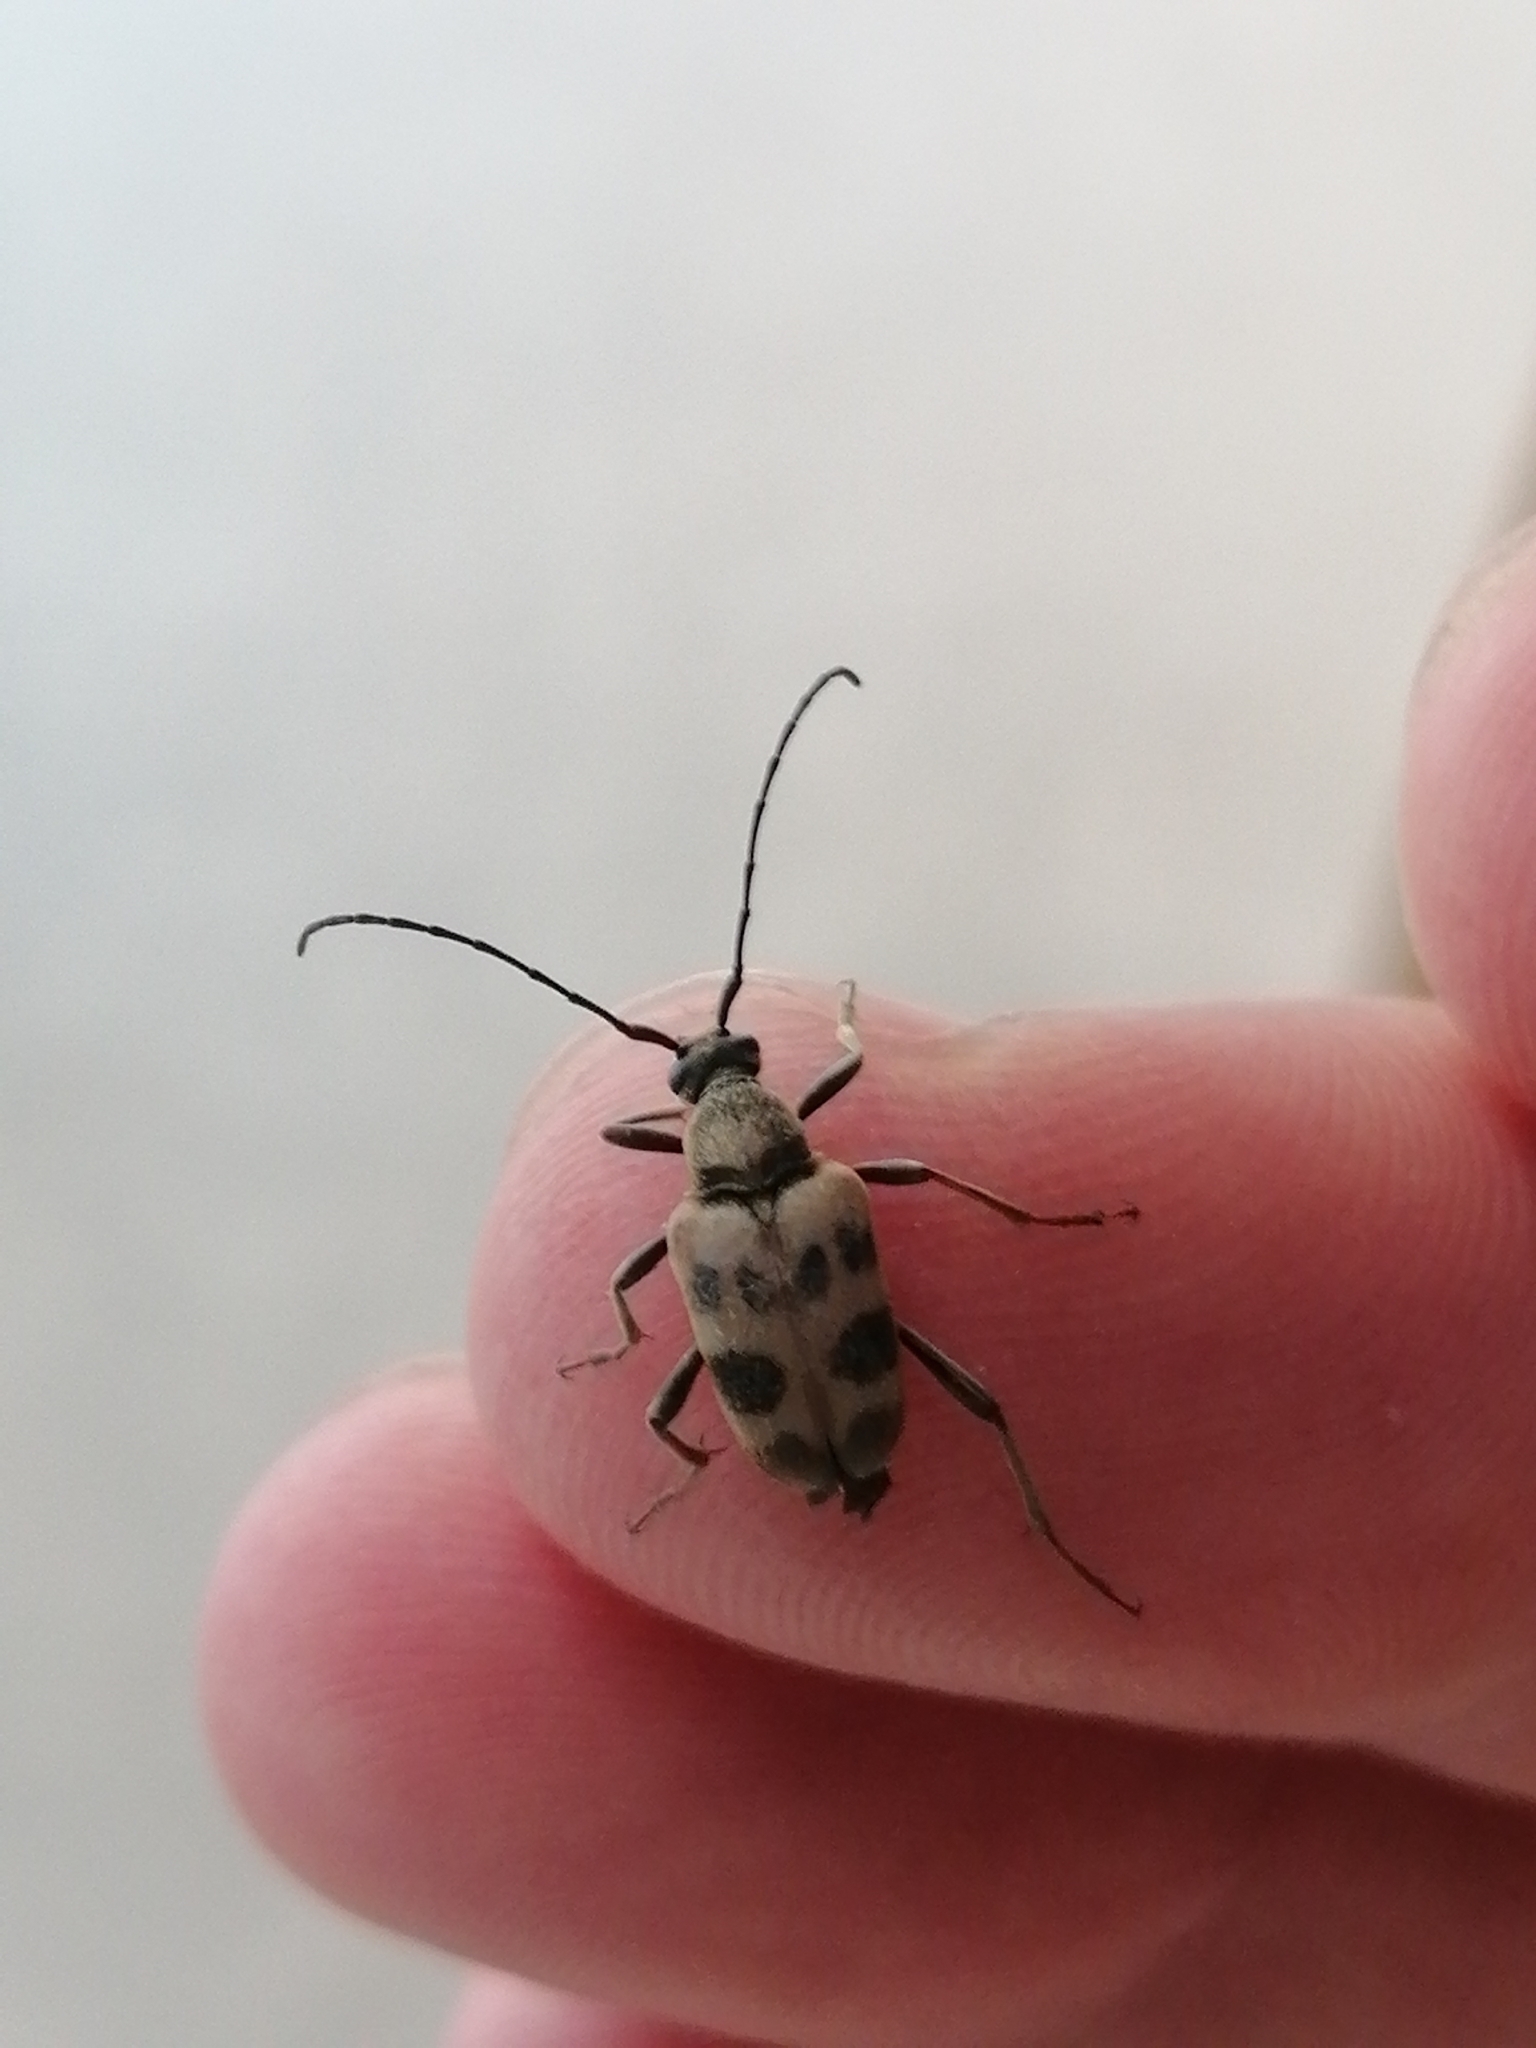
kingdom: Animalia
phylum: Arthropoda
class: Insecta
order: Coleoptera
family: Cerambycidae
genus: Pachytodes
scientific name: Pachytodes cerambyciformis
